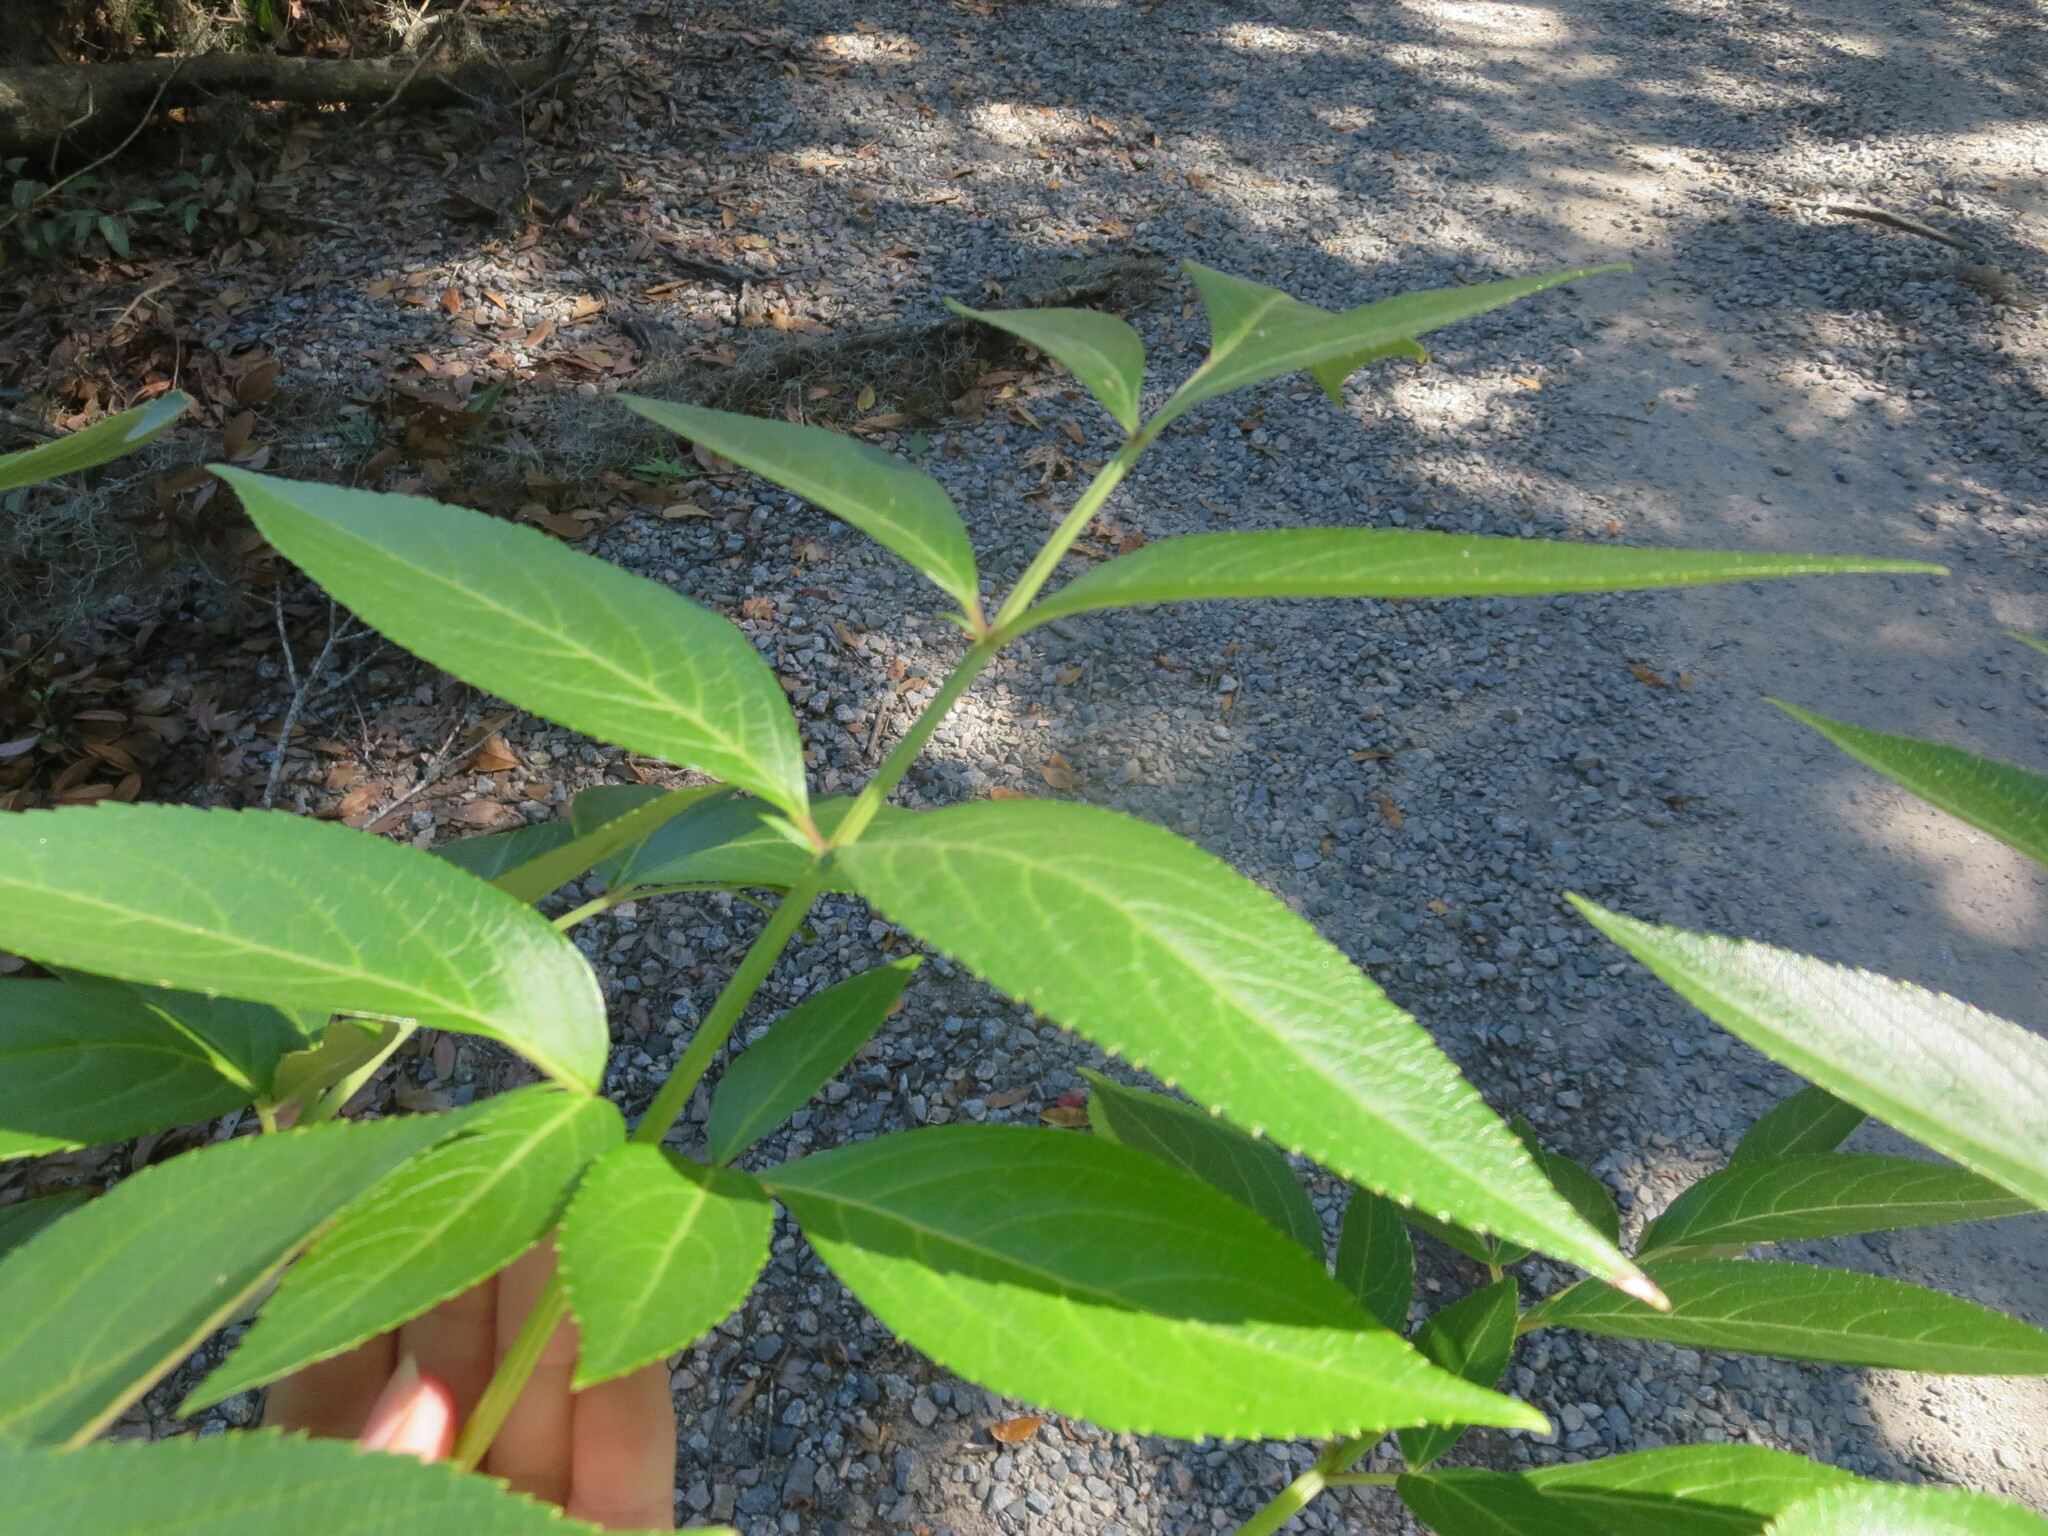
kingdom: Plantae
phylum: Tracheophyta
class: Magnoliopsida
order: Dipsacales
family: Viburnaceae
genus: Sambucus
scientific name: Sambucus canadensis
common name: American elder
